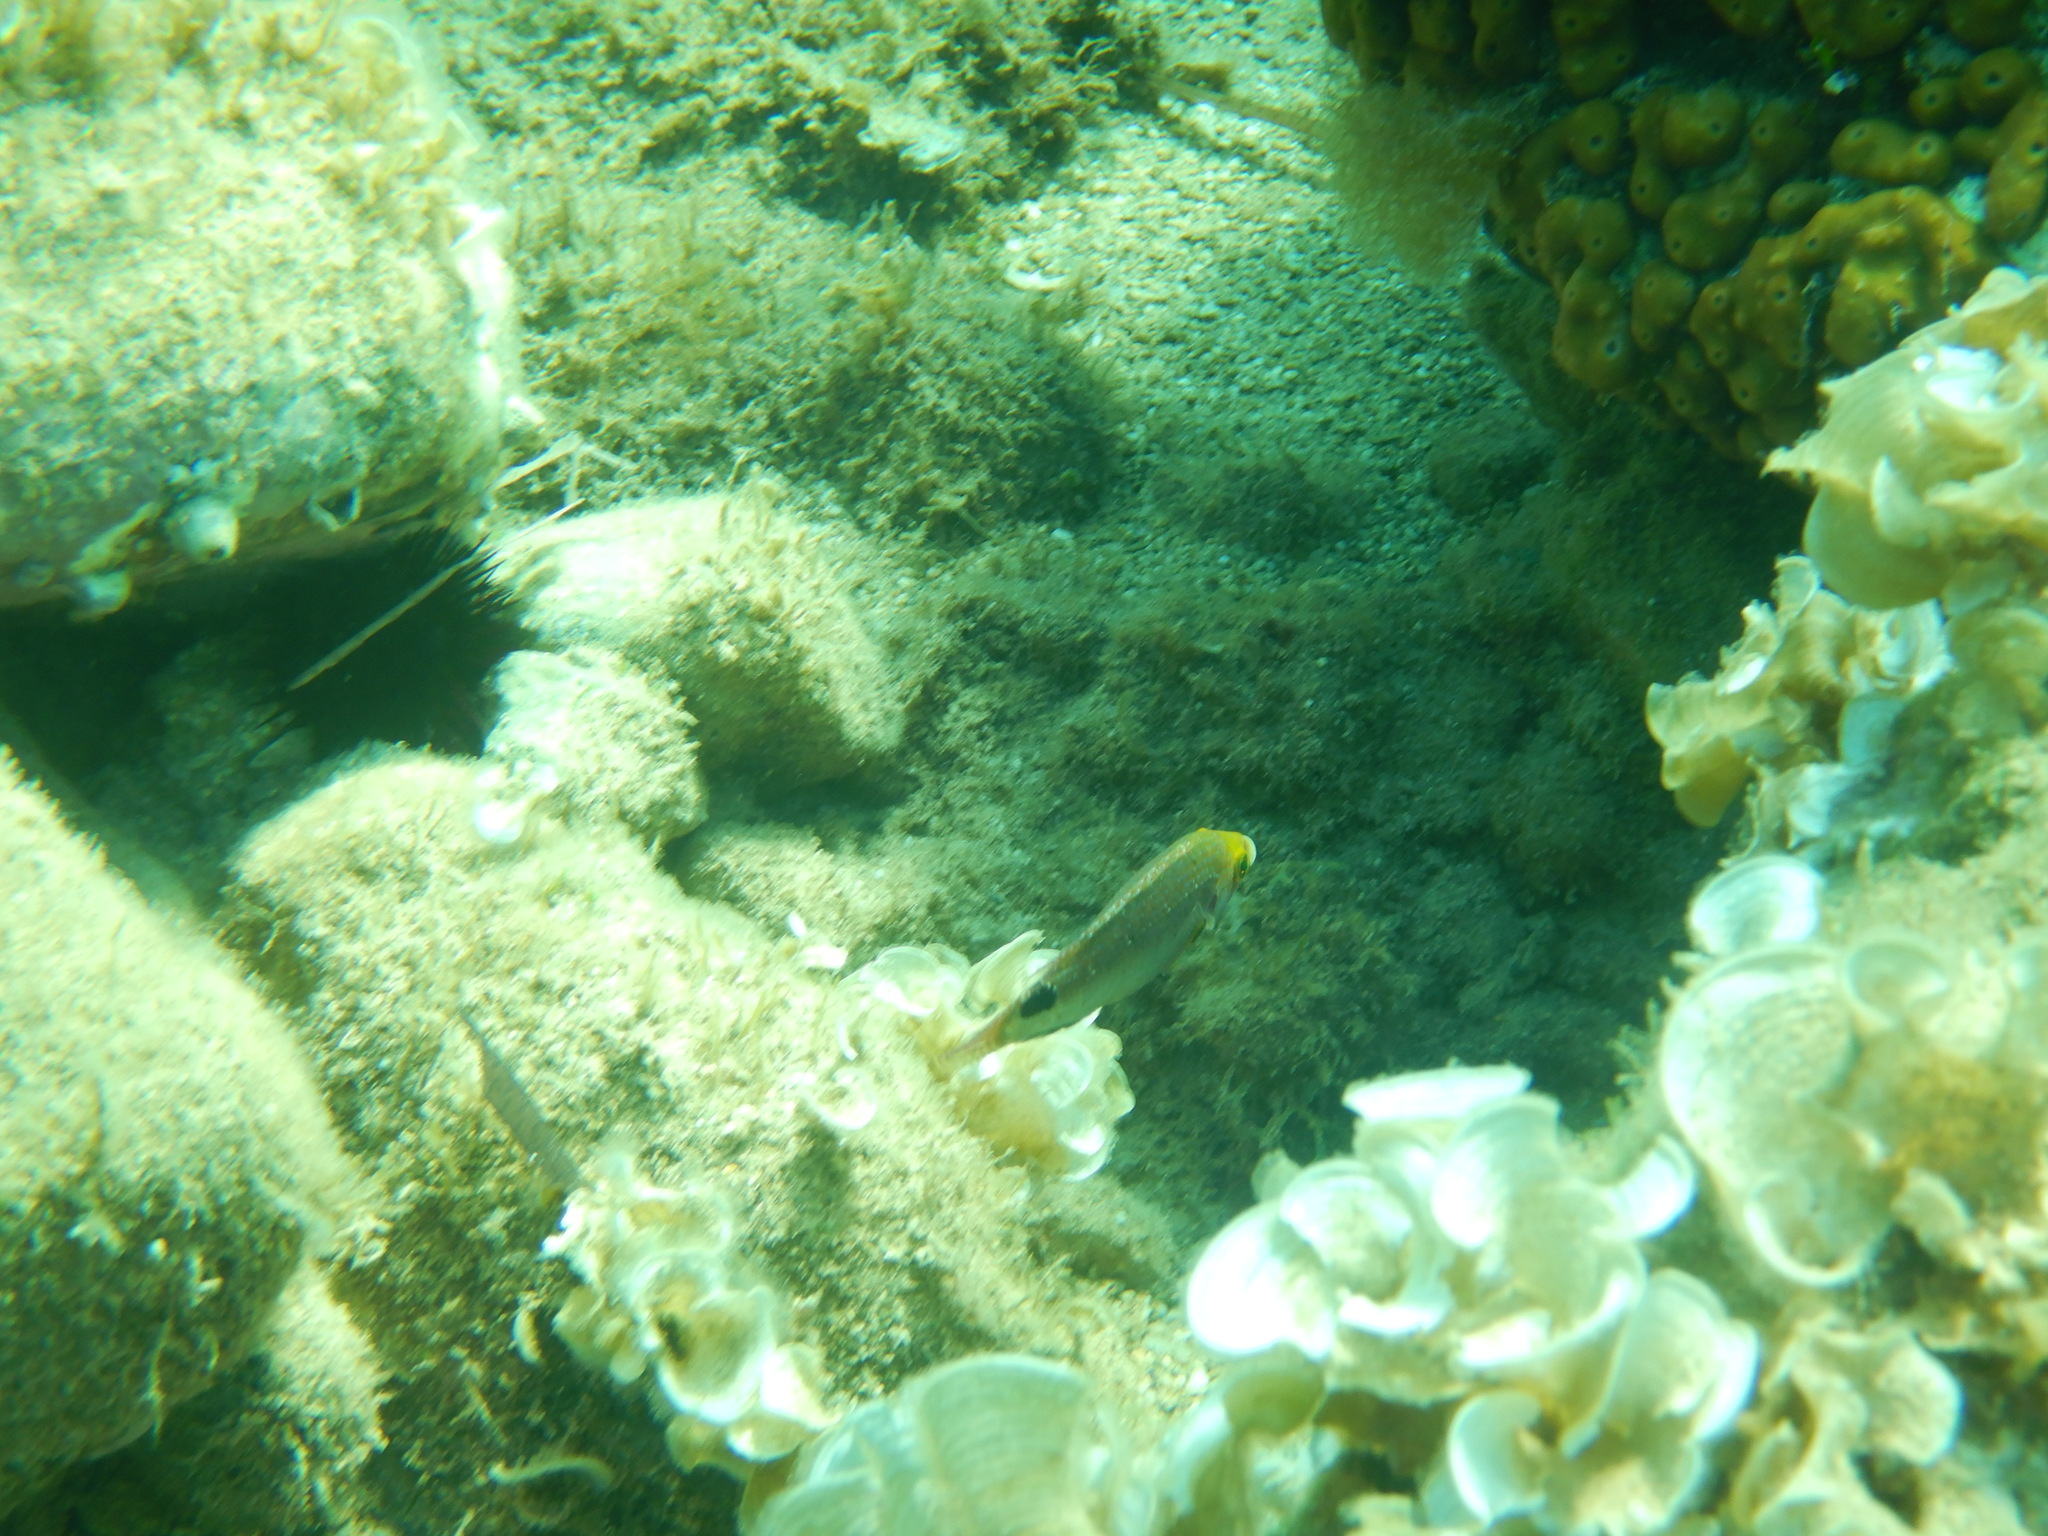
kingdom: Animalia
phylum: Chordata
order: Perciformes
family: Labridae
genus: Symphodus
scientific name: Symphodus mediterraneus
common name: Axillary wrasse
